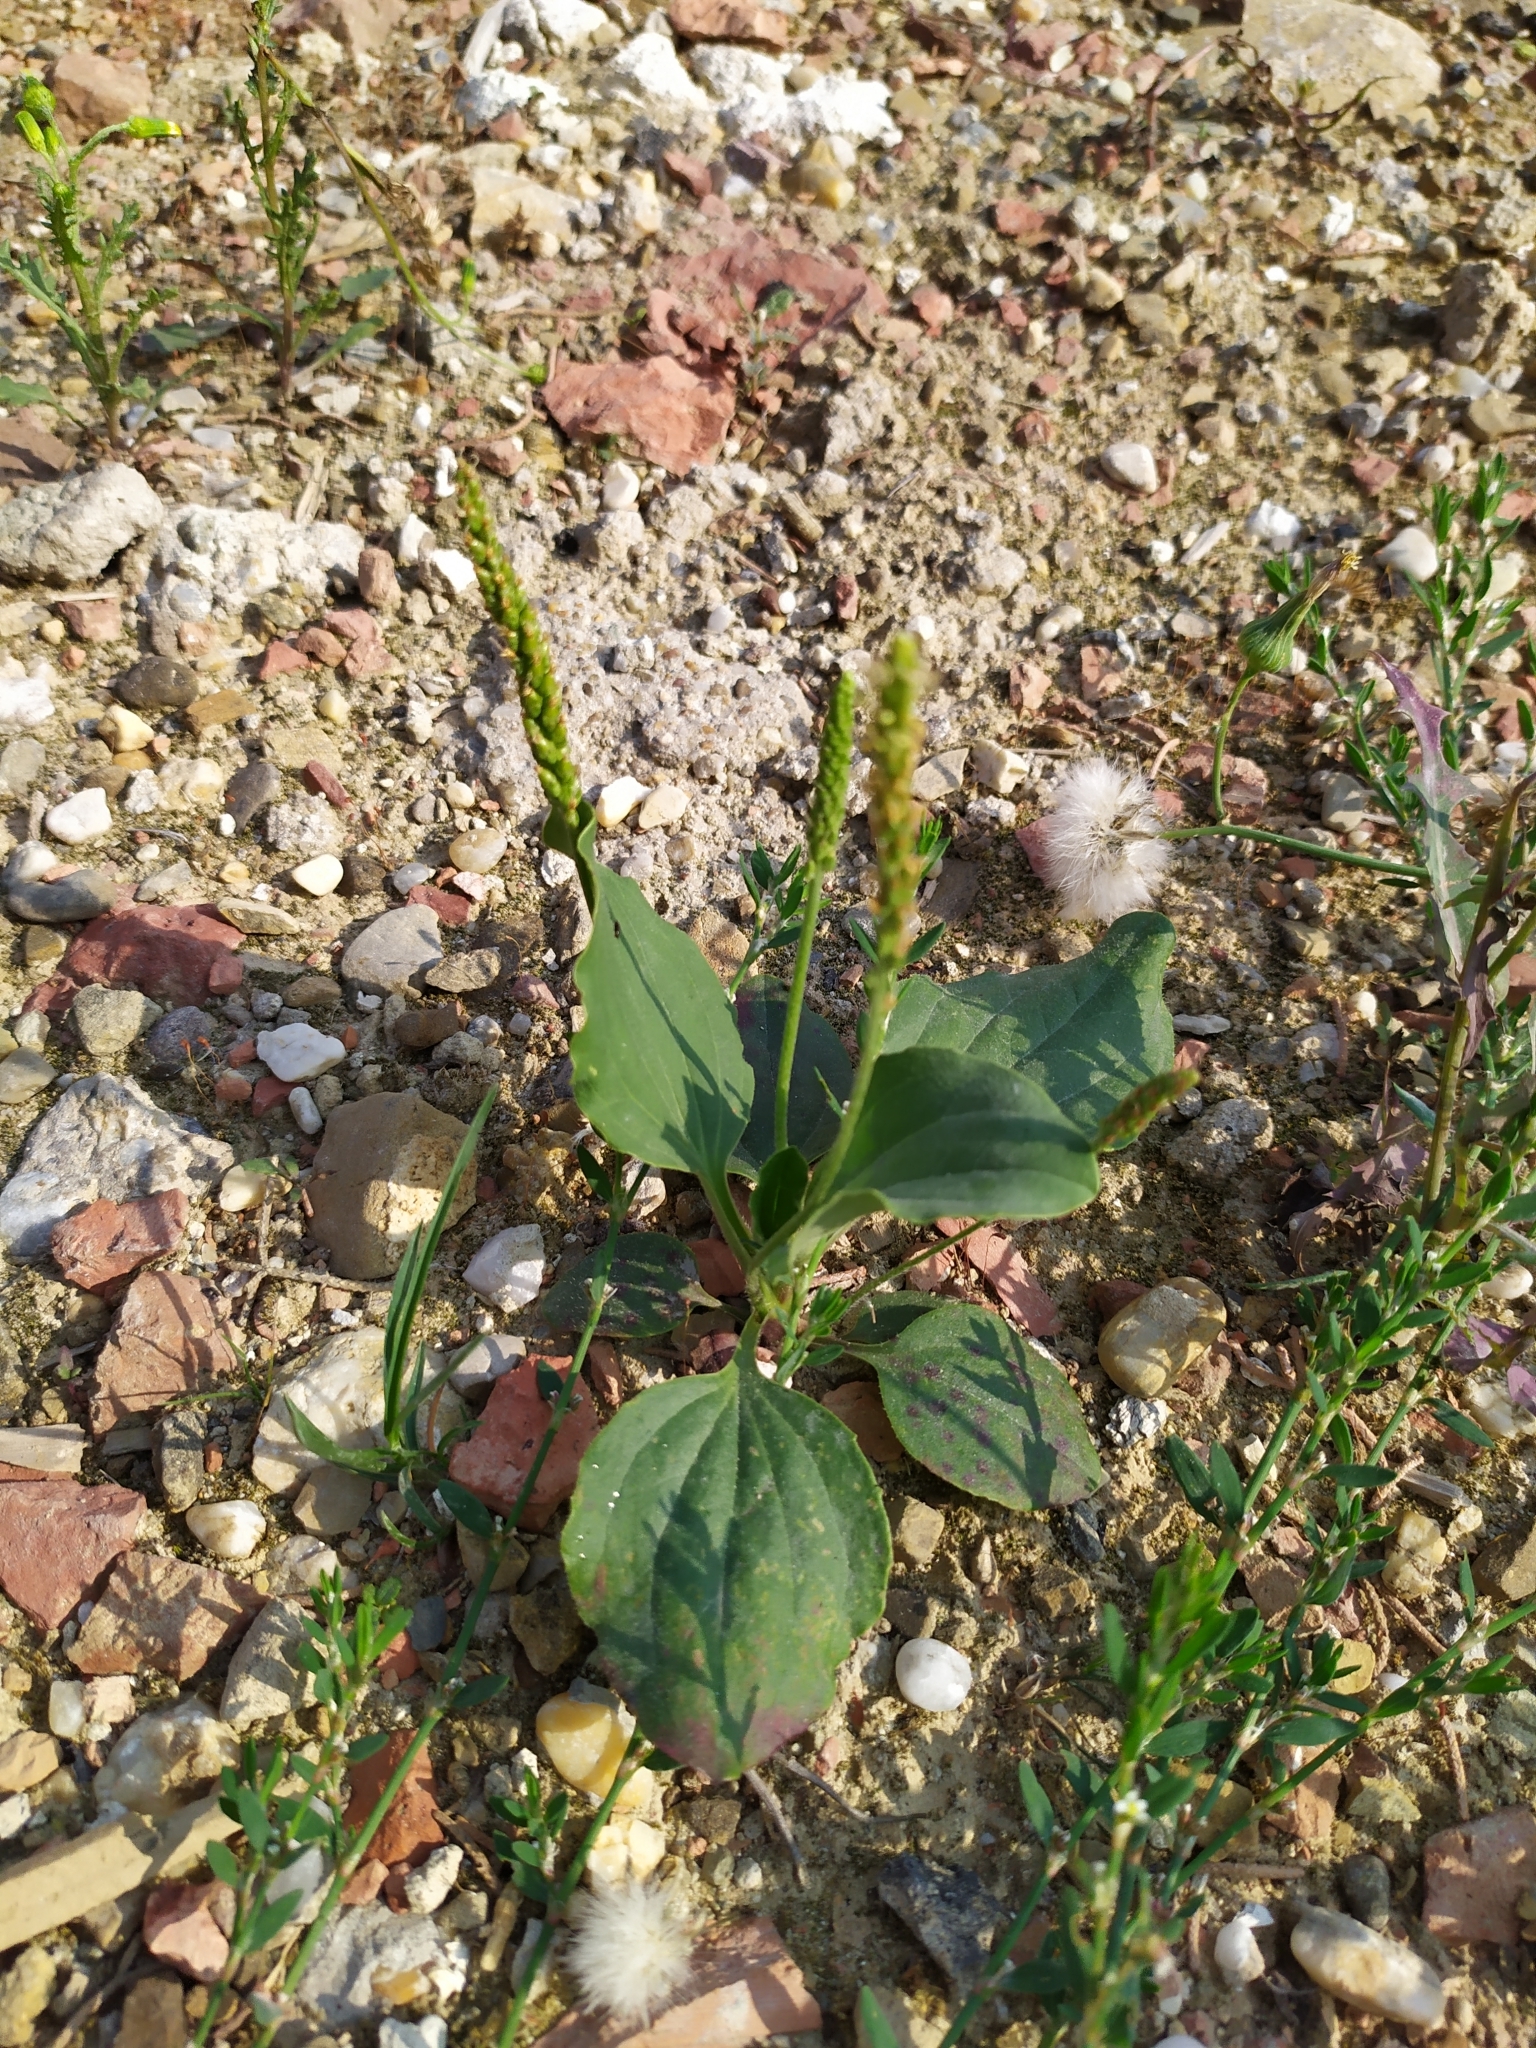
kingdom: Plantae
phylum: Tracheophyta
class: Magnoliopsida
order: Lamiales
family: Plantaginaceae
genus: Plantago
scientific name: Plantago major
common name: Common plantain
